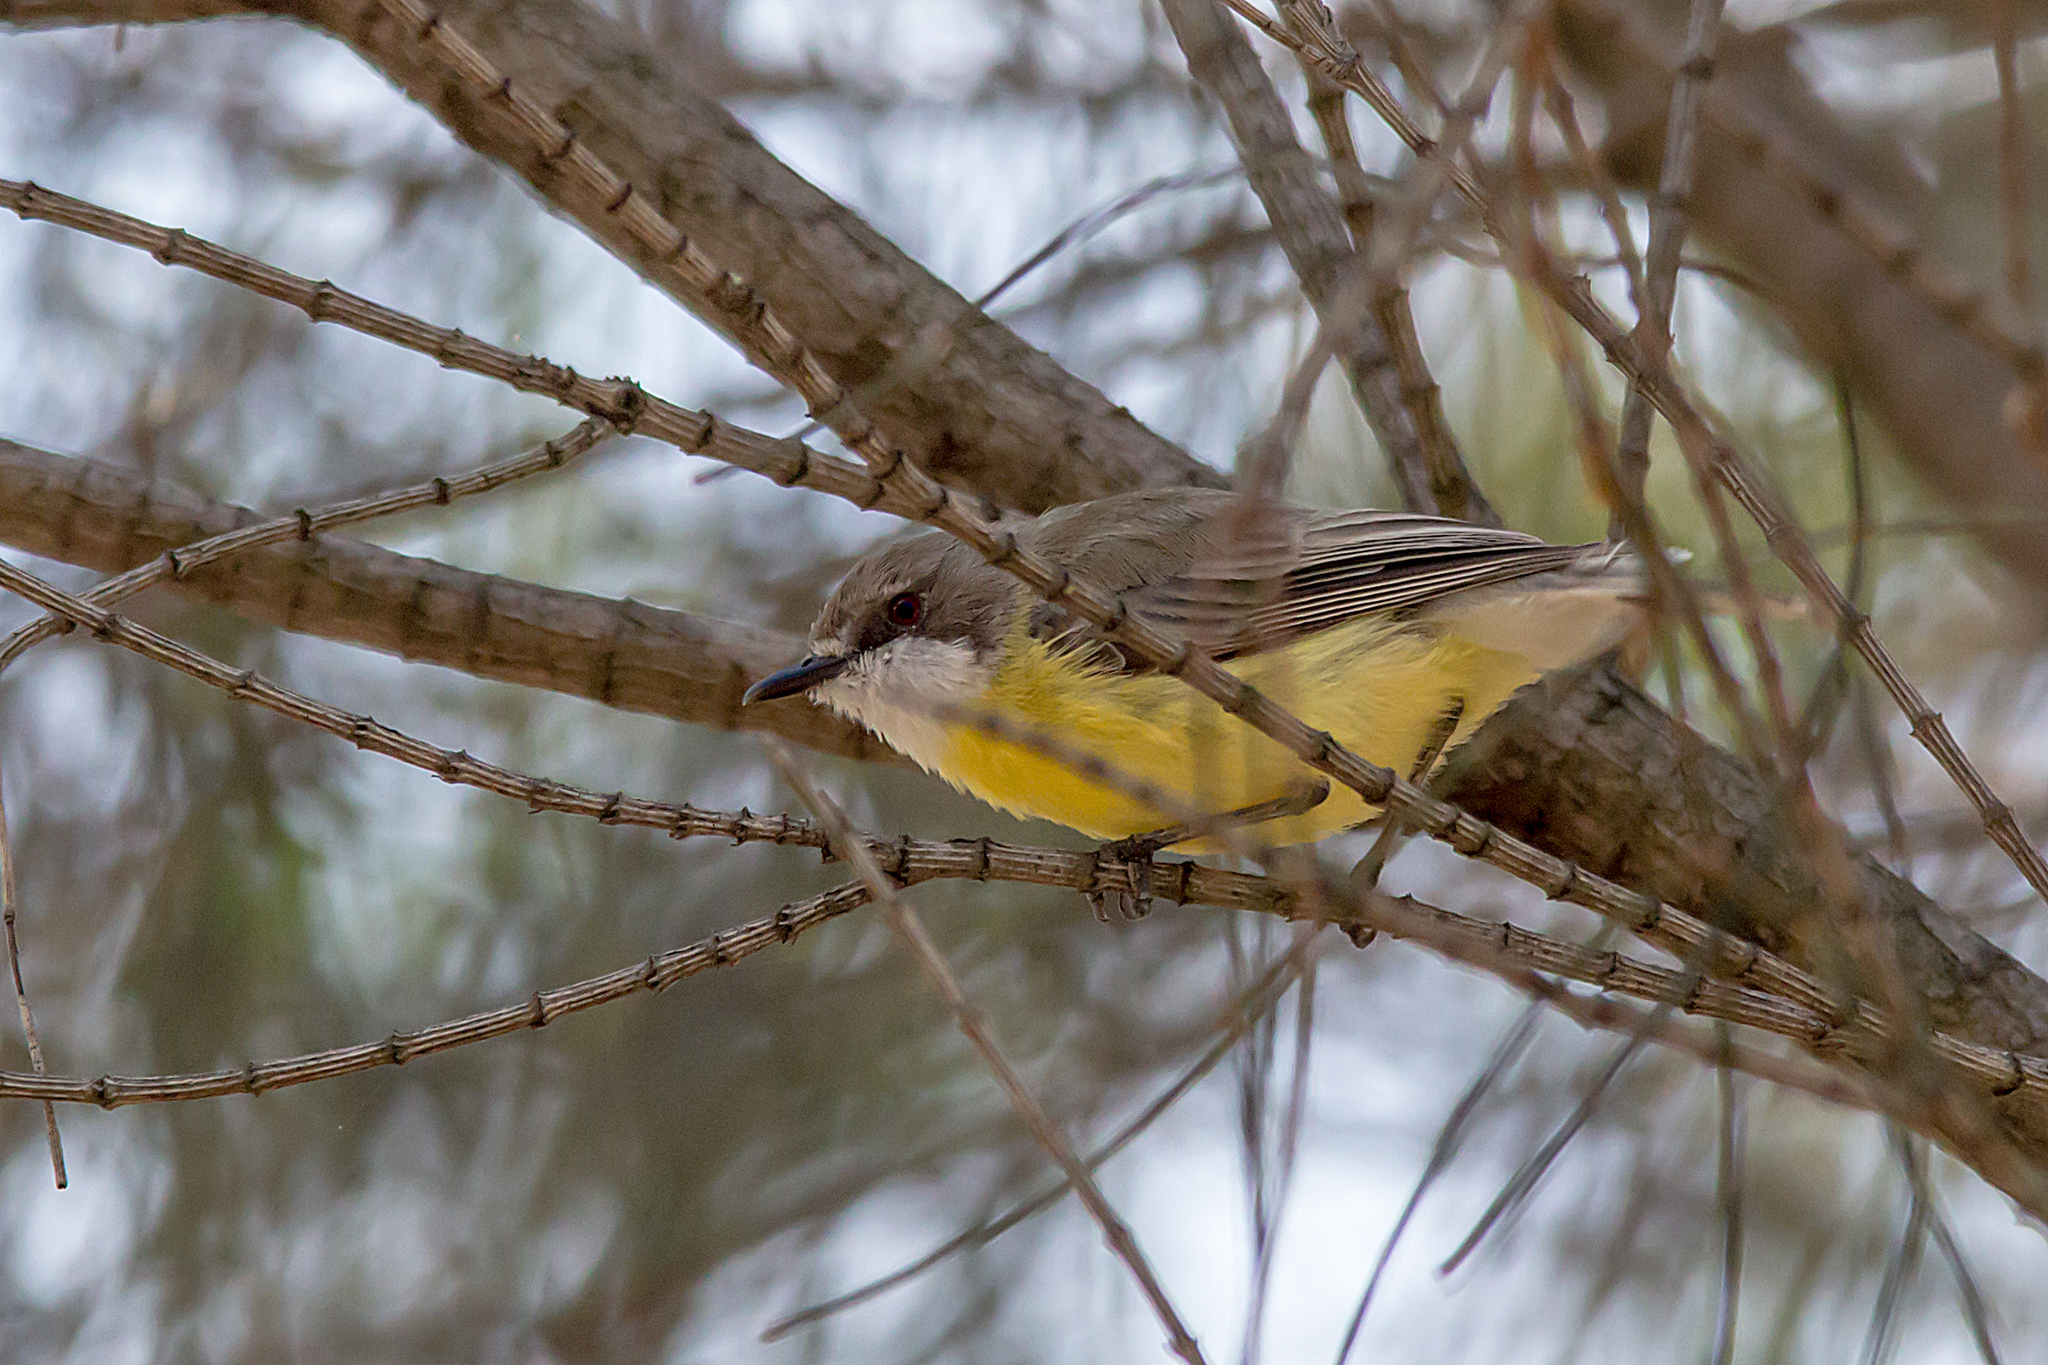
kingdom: Animalia
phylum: Chordata
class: Aves
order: Passeriformes
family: Acanthizidae
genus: Gerygone
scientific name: Gerygone olivacea
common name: White-throated gerygone
